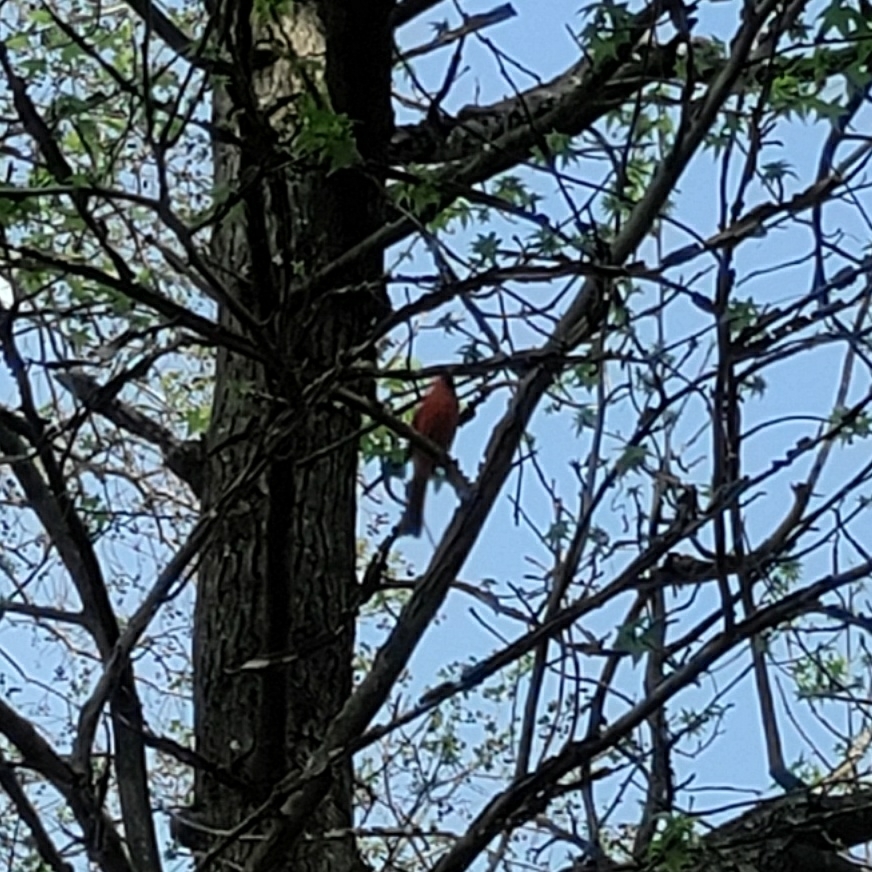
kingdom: Animalia
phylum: Chordata
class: Aves
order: Passeriformes
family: Cardinalidae
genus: Cardinalis
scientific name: Cardinalis cardinalis
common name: Northern cardinal
